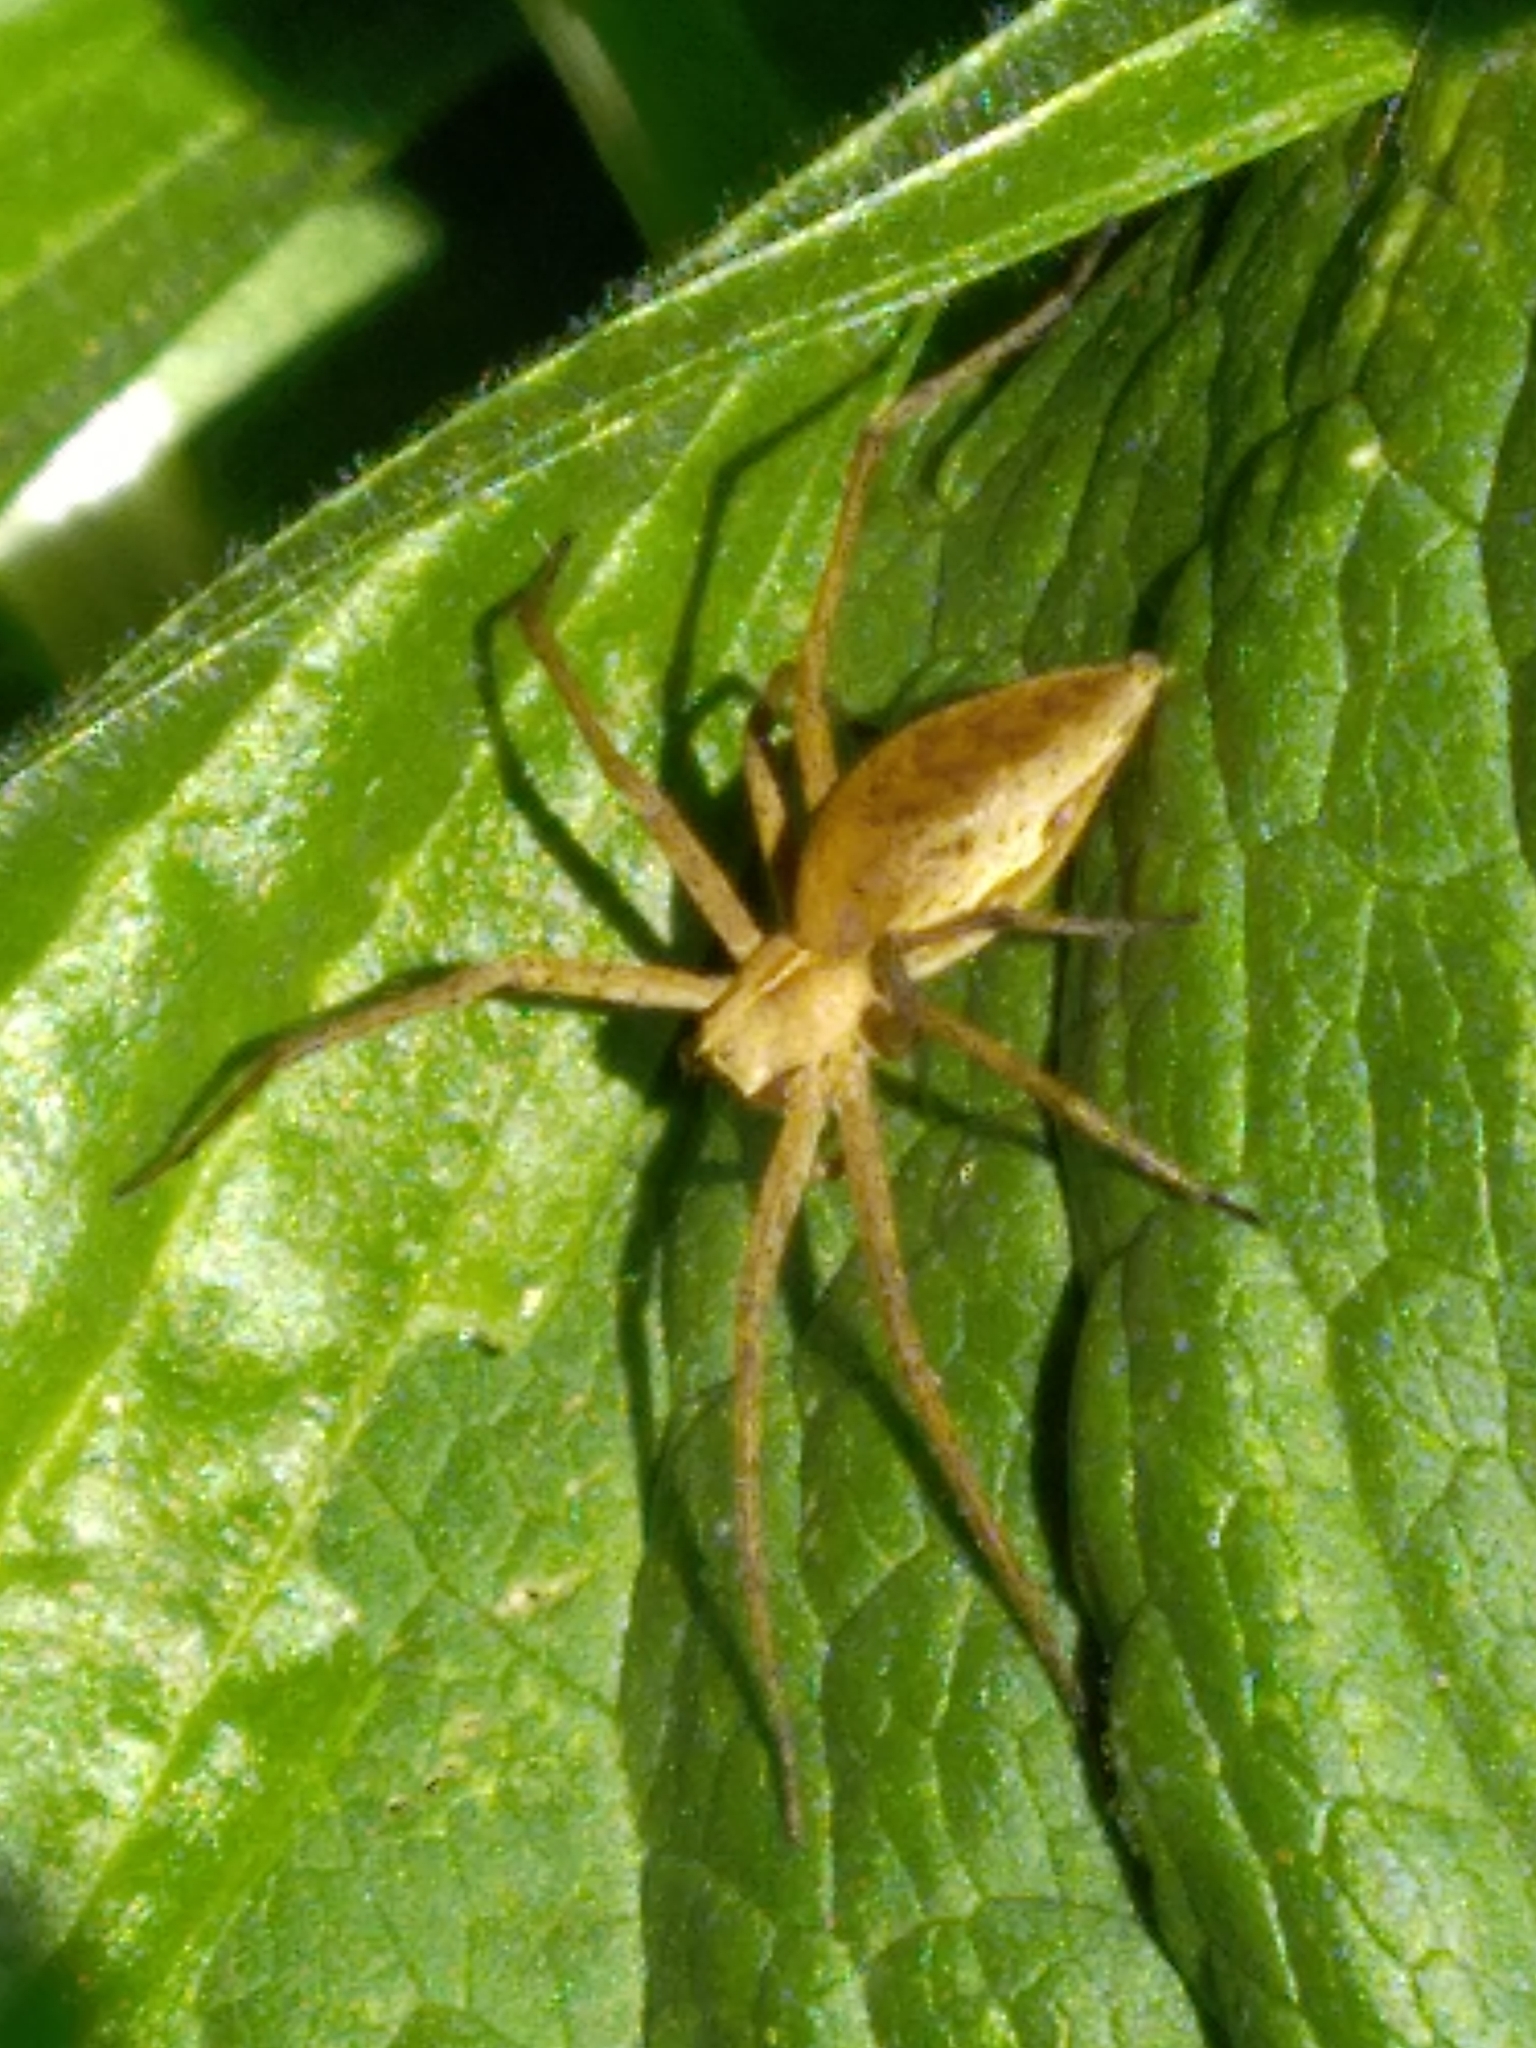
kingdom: Animalia
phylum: Arthropoda
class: Arachnida
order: Araneae
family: Pisauridae
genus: Pisaura
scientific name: Pisaura mirabilis
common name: Tent spider
